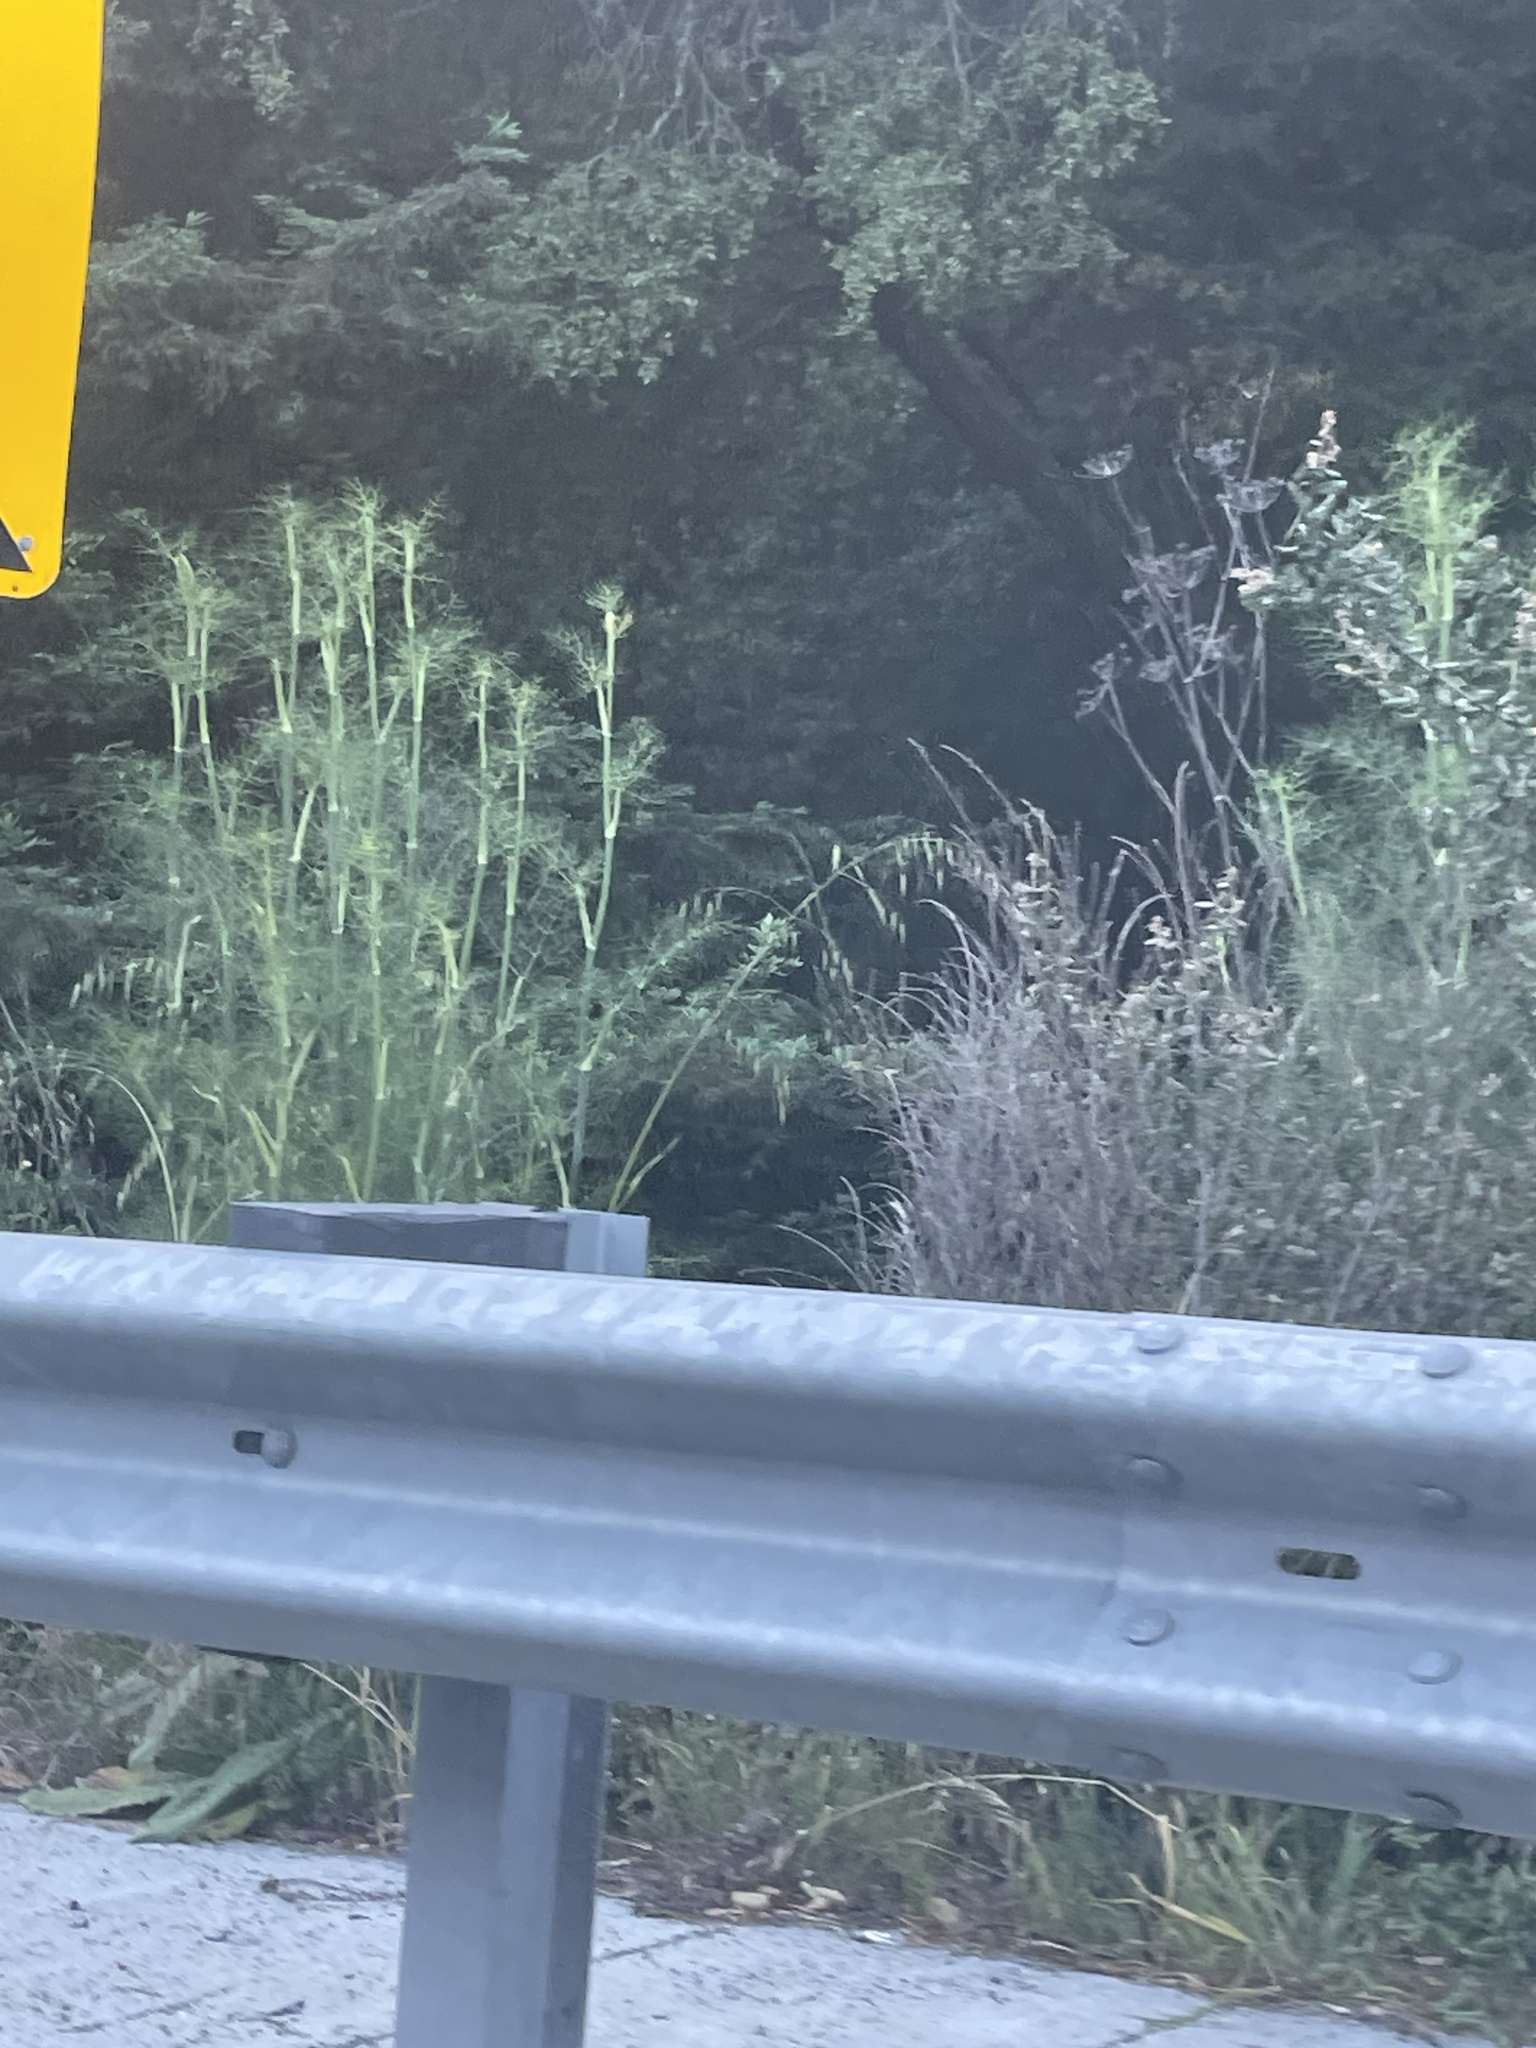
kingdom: Plantae
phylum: Tracheophyta
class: Magnoliopsida
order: Apiales
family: Apiaceae
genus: Foeniculum
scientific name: Foeniculum vulgare
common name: Fennel
